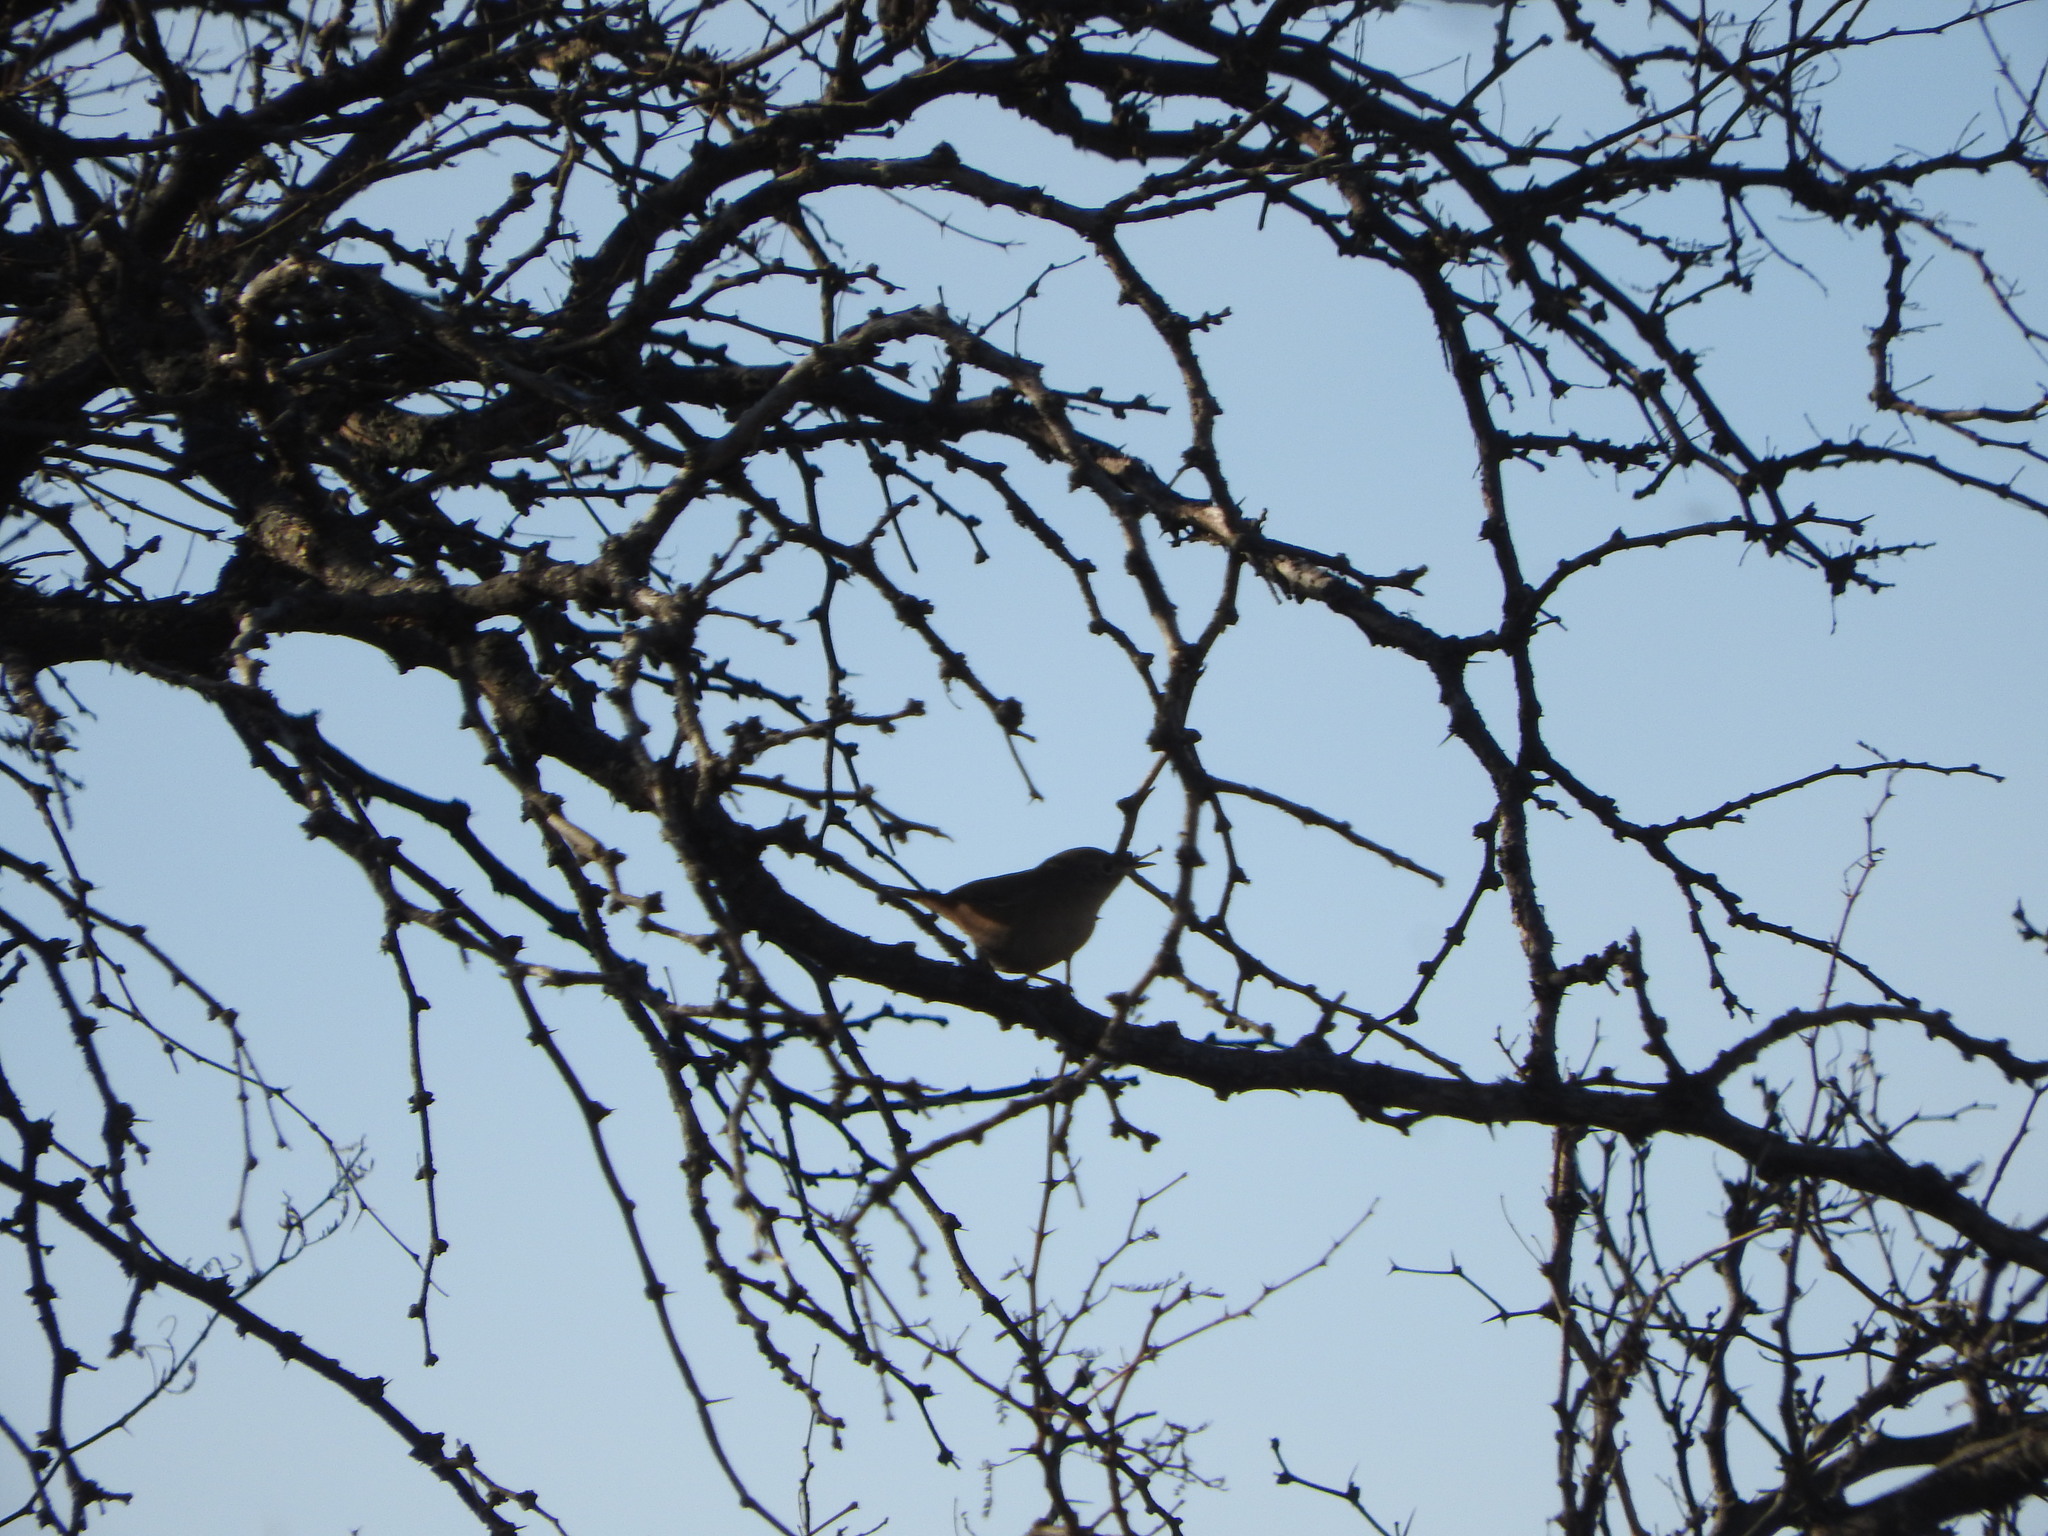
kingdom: Animalia
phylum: Chordata
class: Aves
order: Passeriformes
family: Troglodytidae
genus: Troglodytes
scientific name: Troglodytes aedon
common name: House wren
